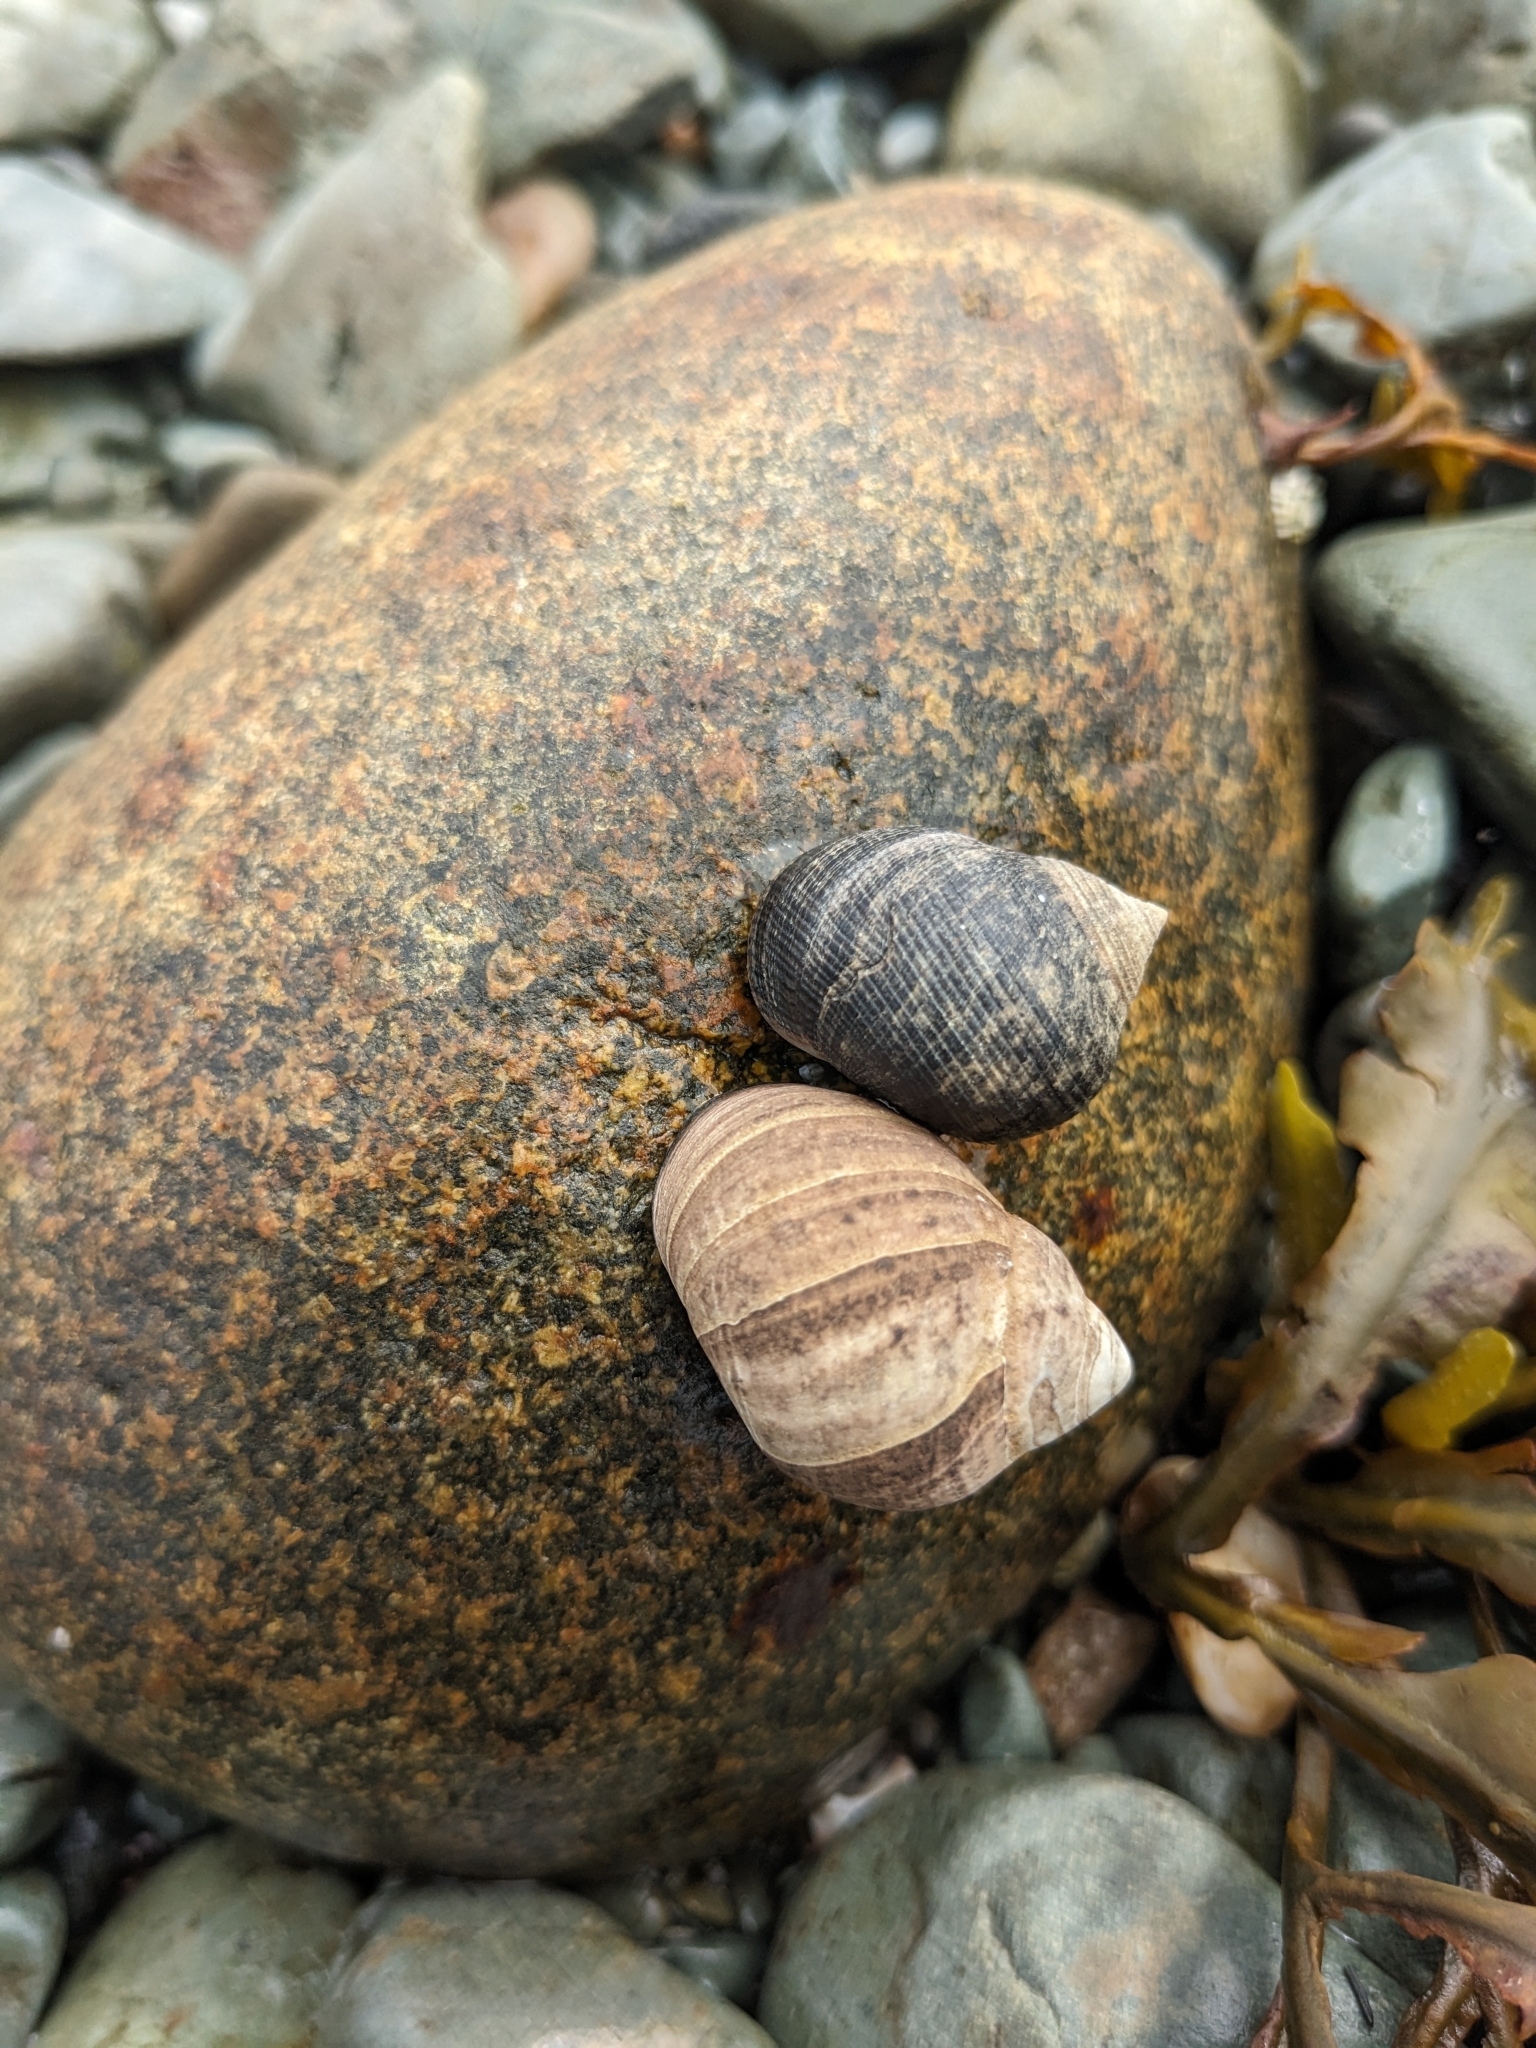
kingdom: Animalia
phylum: Mollusca
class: Gastropoda
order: Littorinimorpha
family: Littorinidae
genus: Littorina
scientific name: Littorina littorea
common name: Common periwinkle
